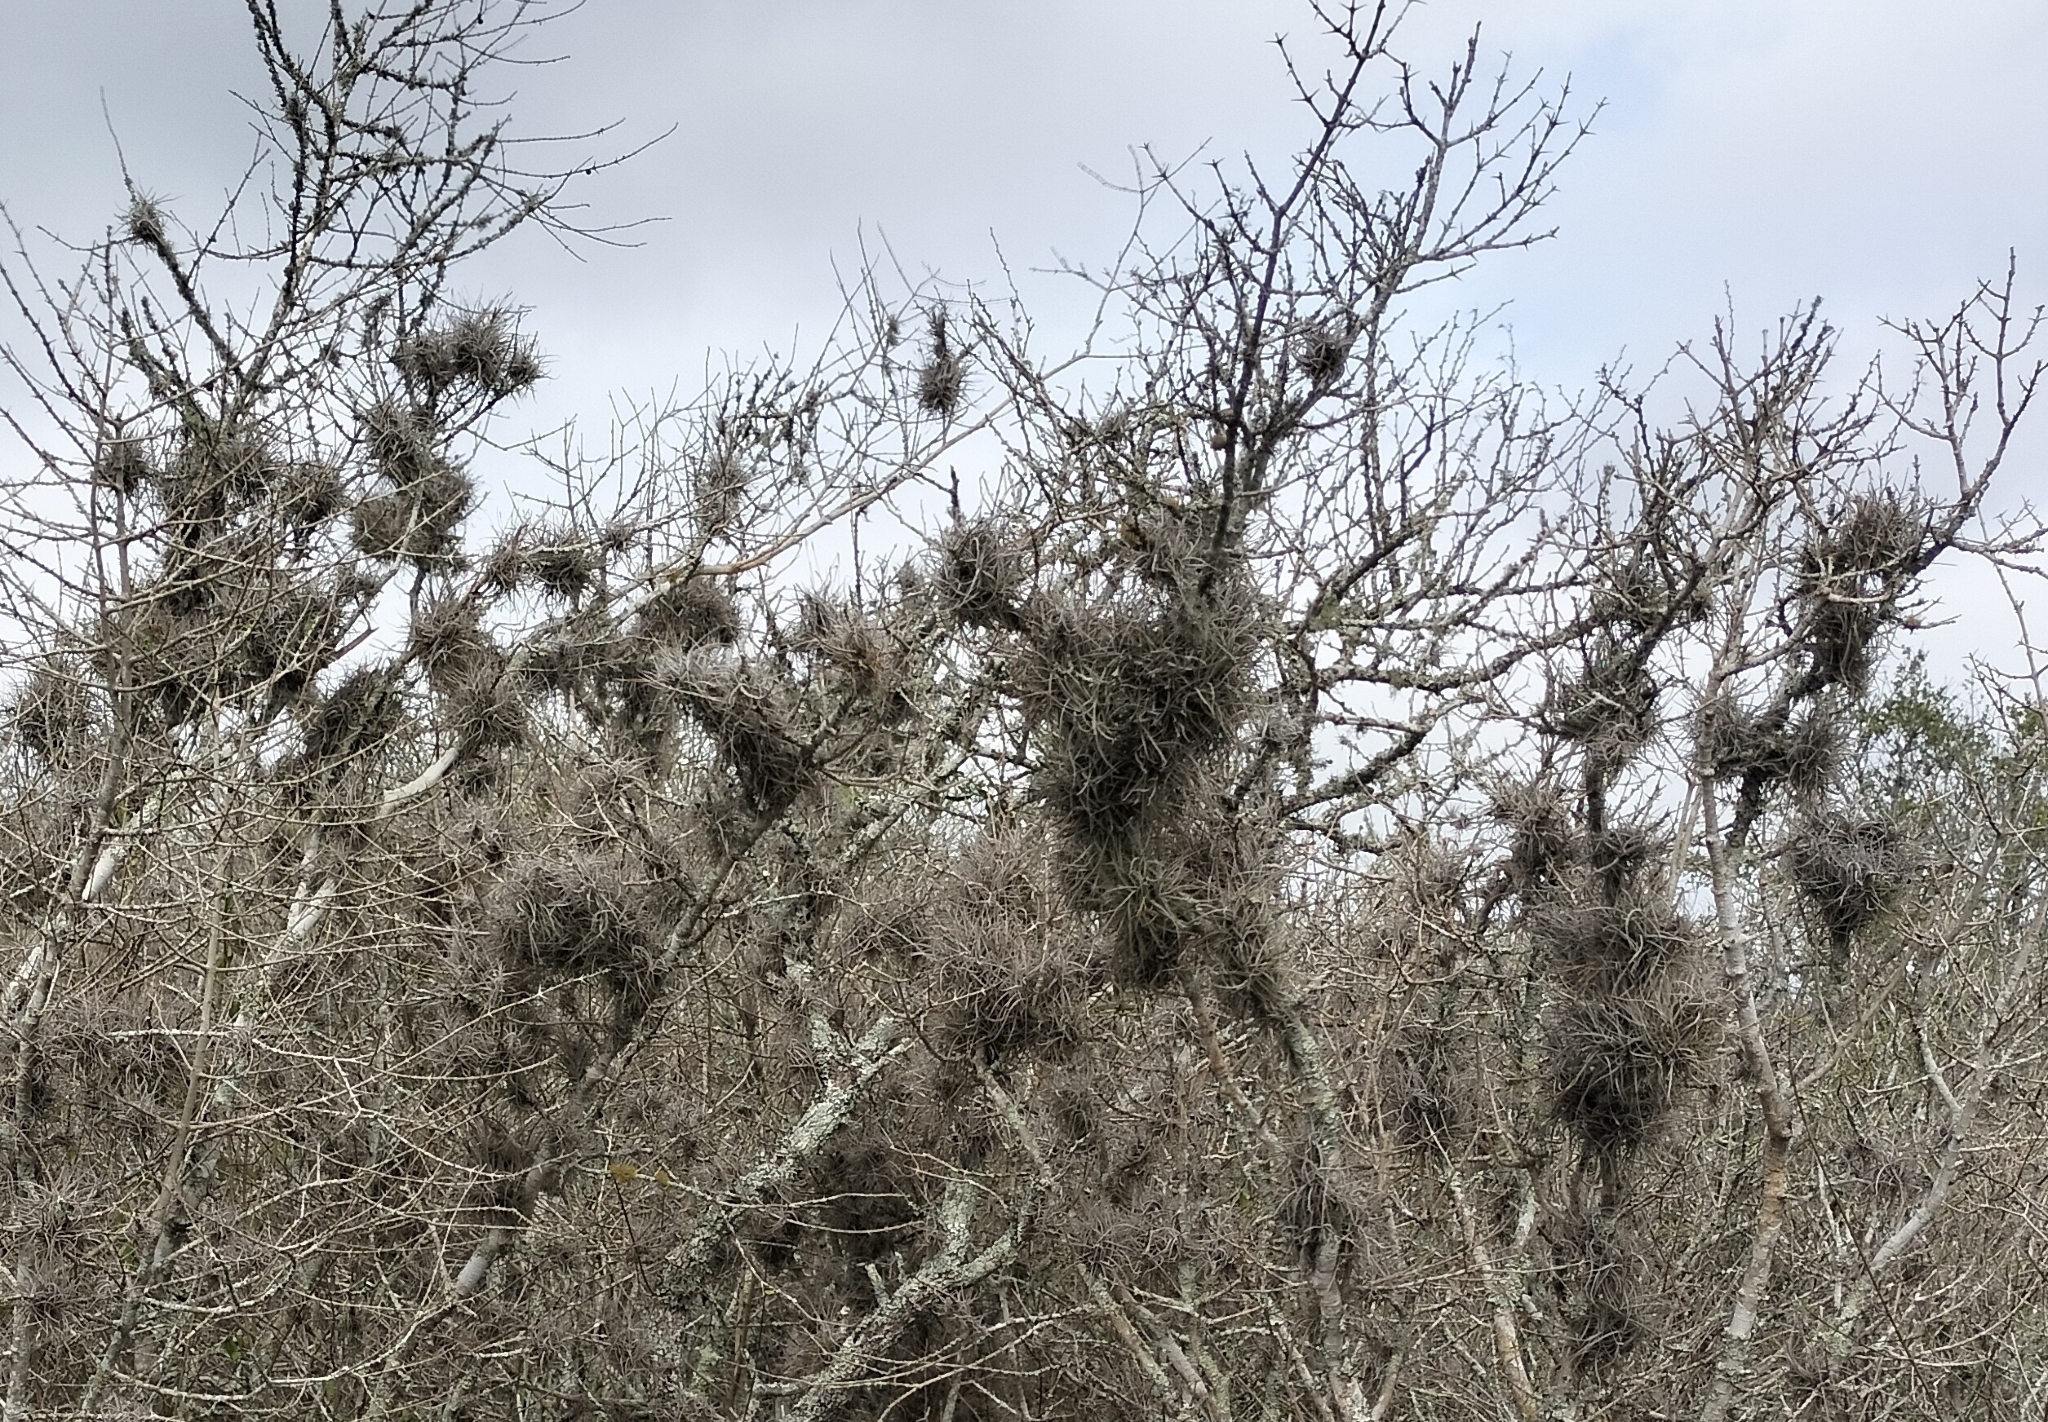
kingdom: Plantae
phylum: Tracheophyta
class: Liliopsida
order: Poales
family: Bromeliaceae
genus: Tillandsia
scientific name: Tillandsia recurvata
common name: Small ballmoss
